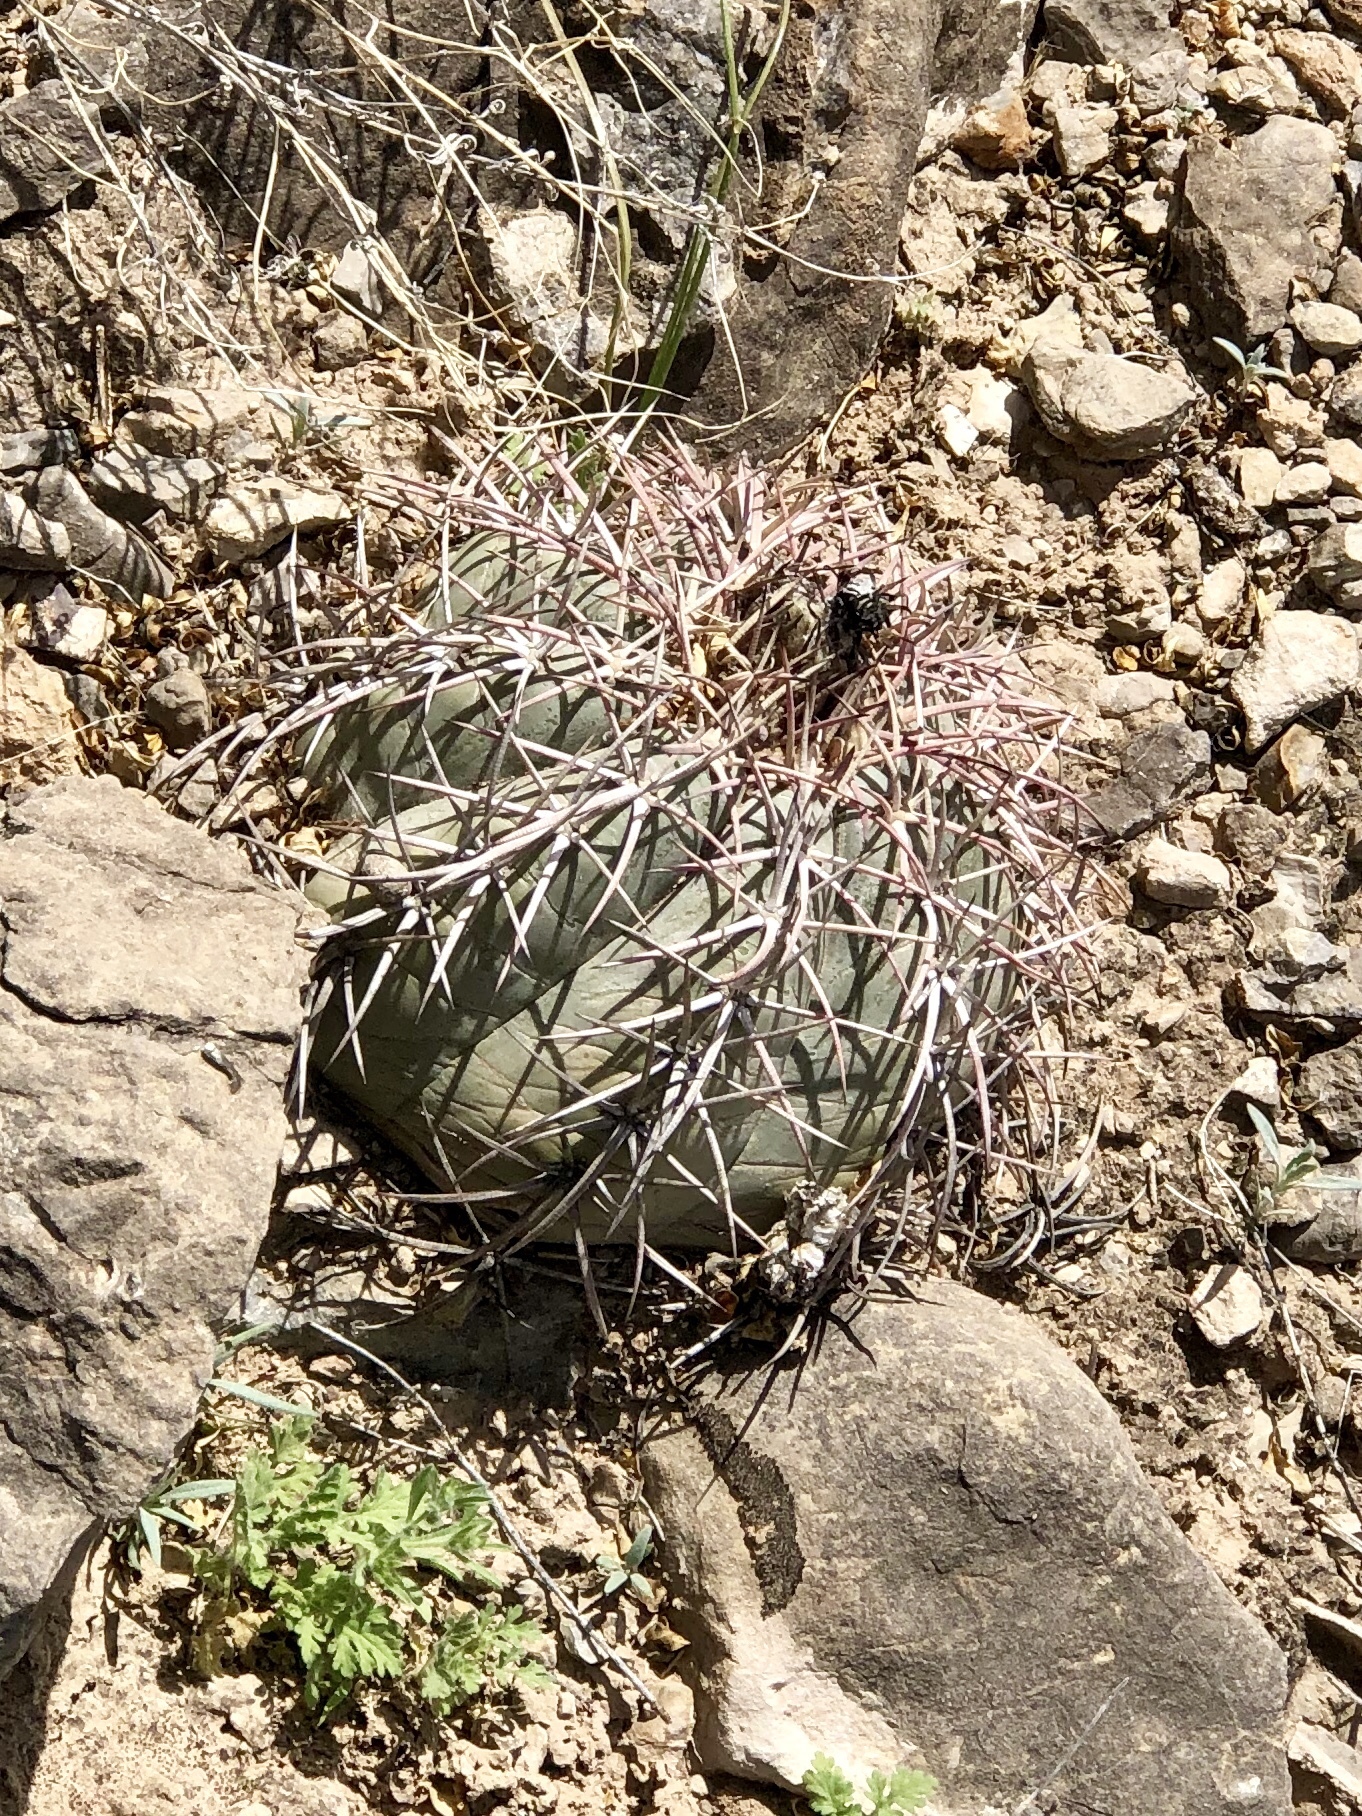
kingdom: Plantae
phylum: Tracheophyta
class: Magnoliopsida
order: Caryophyllales
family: Cactaceae
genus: Echinocactus
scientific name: Echinocactus horizonthalonius
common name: Devilshead
